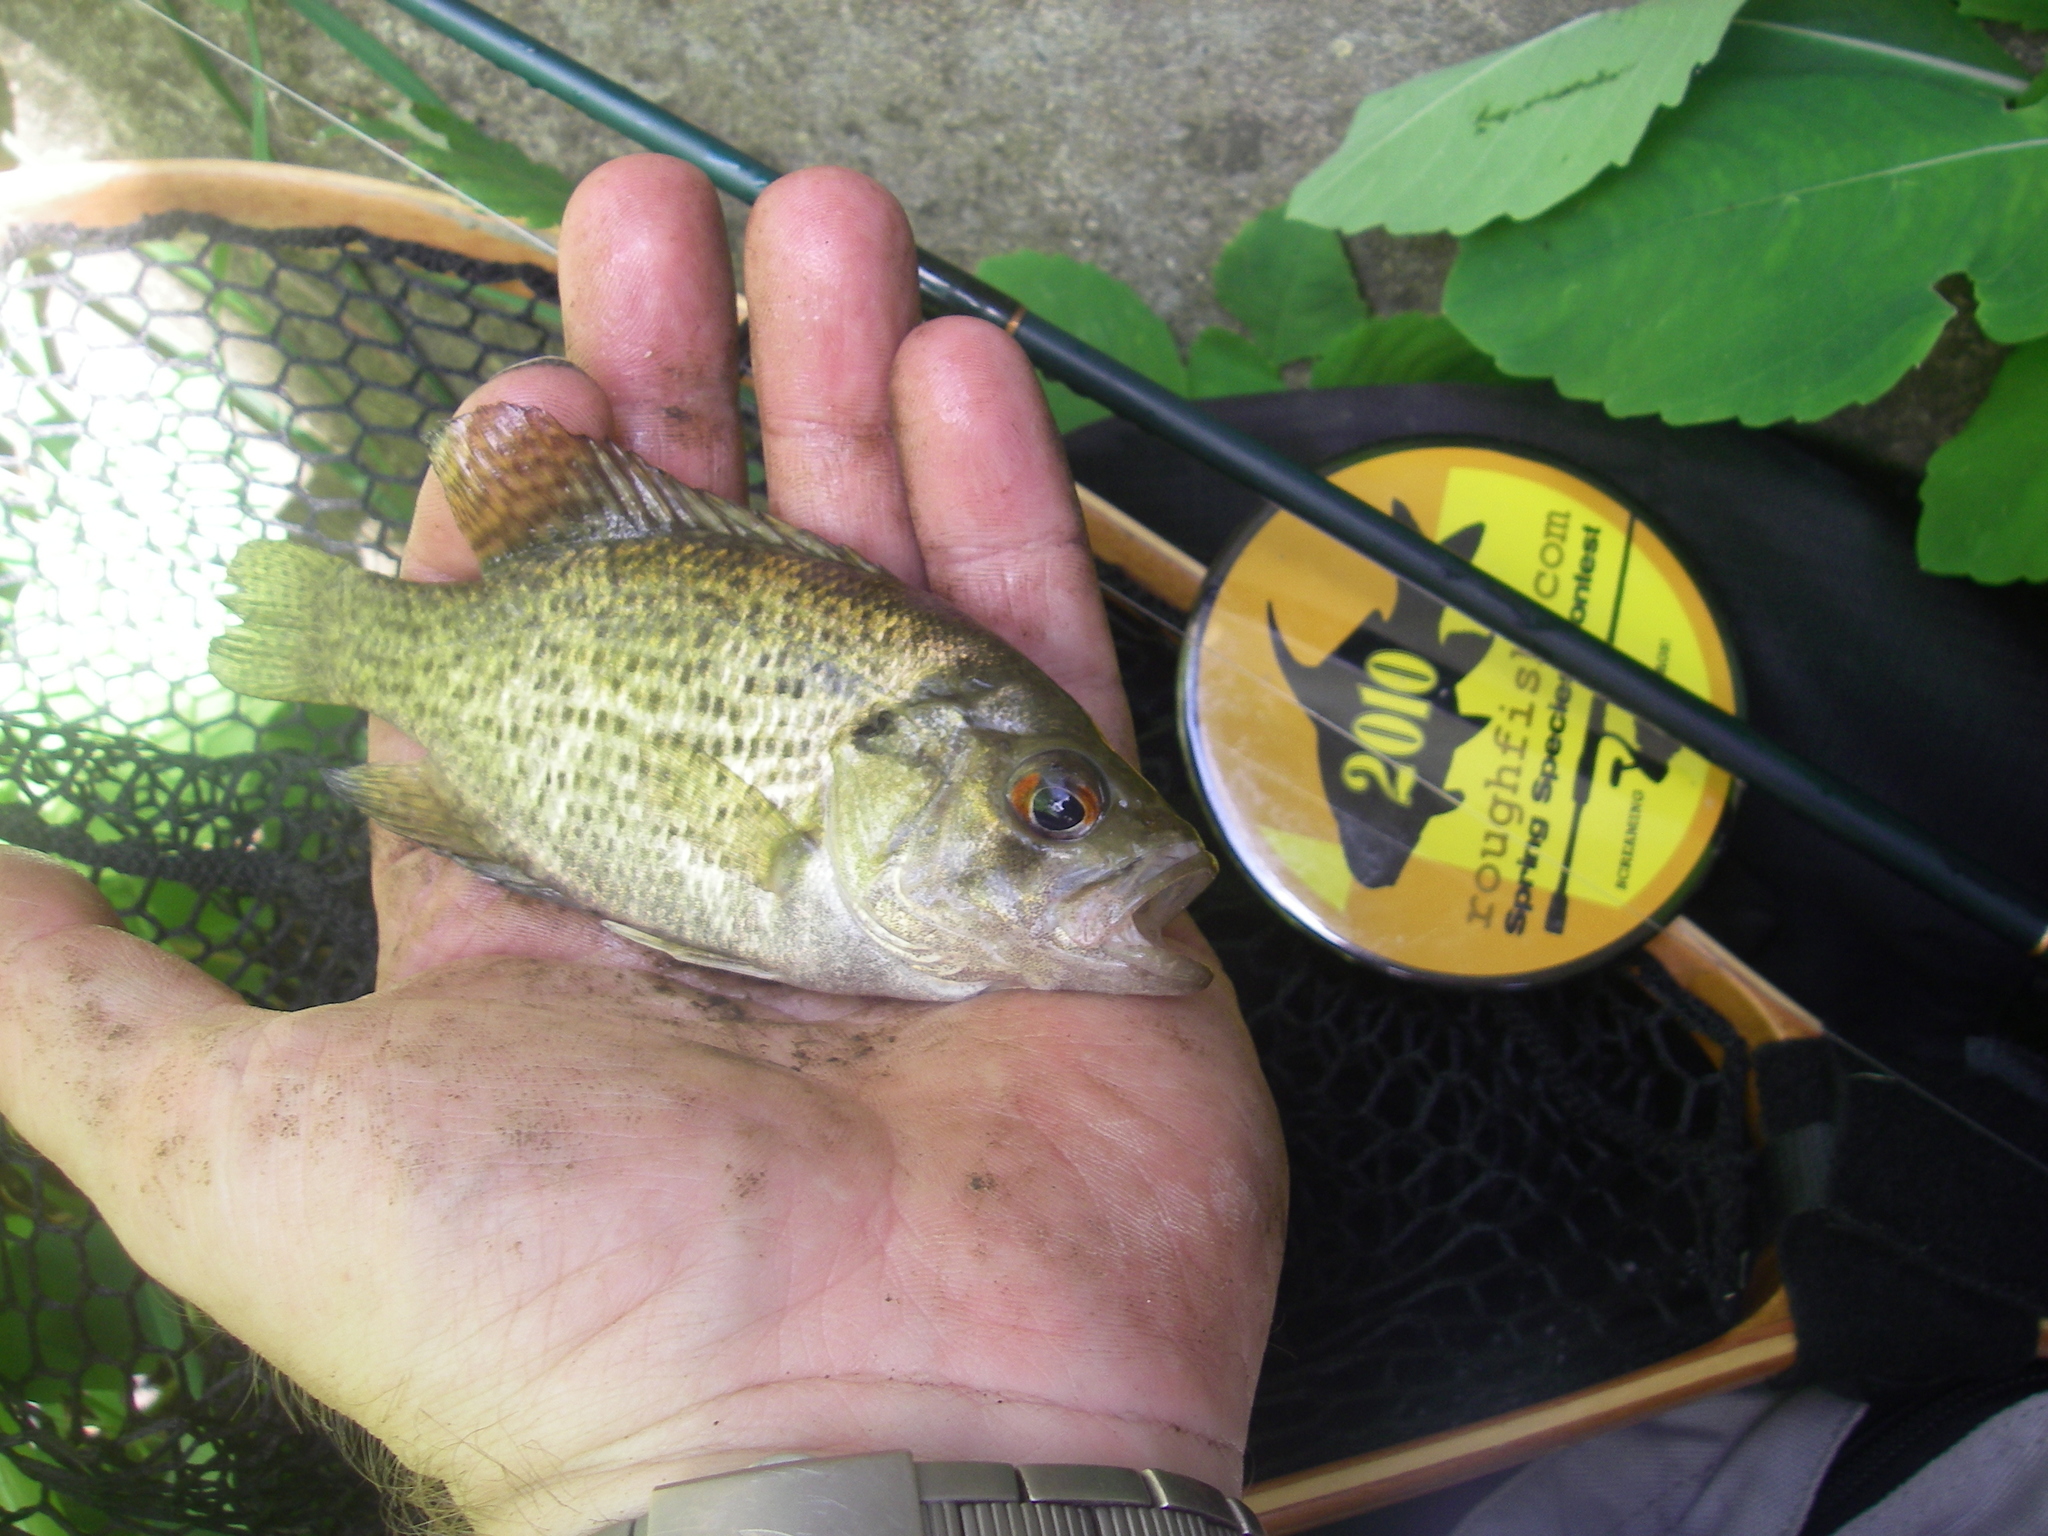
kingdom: Animalia
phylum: Chordata
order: Perciformes
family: Centrarchidae
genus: Ambloplites
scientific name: Ambloplites rupestris
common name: Rock bass
